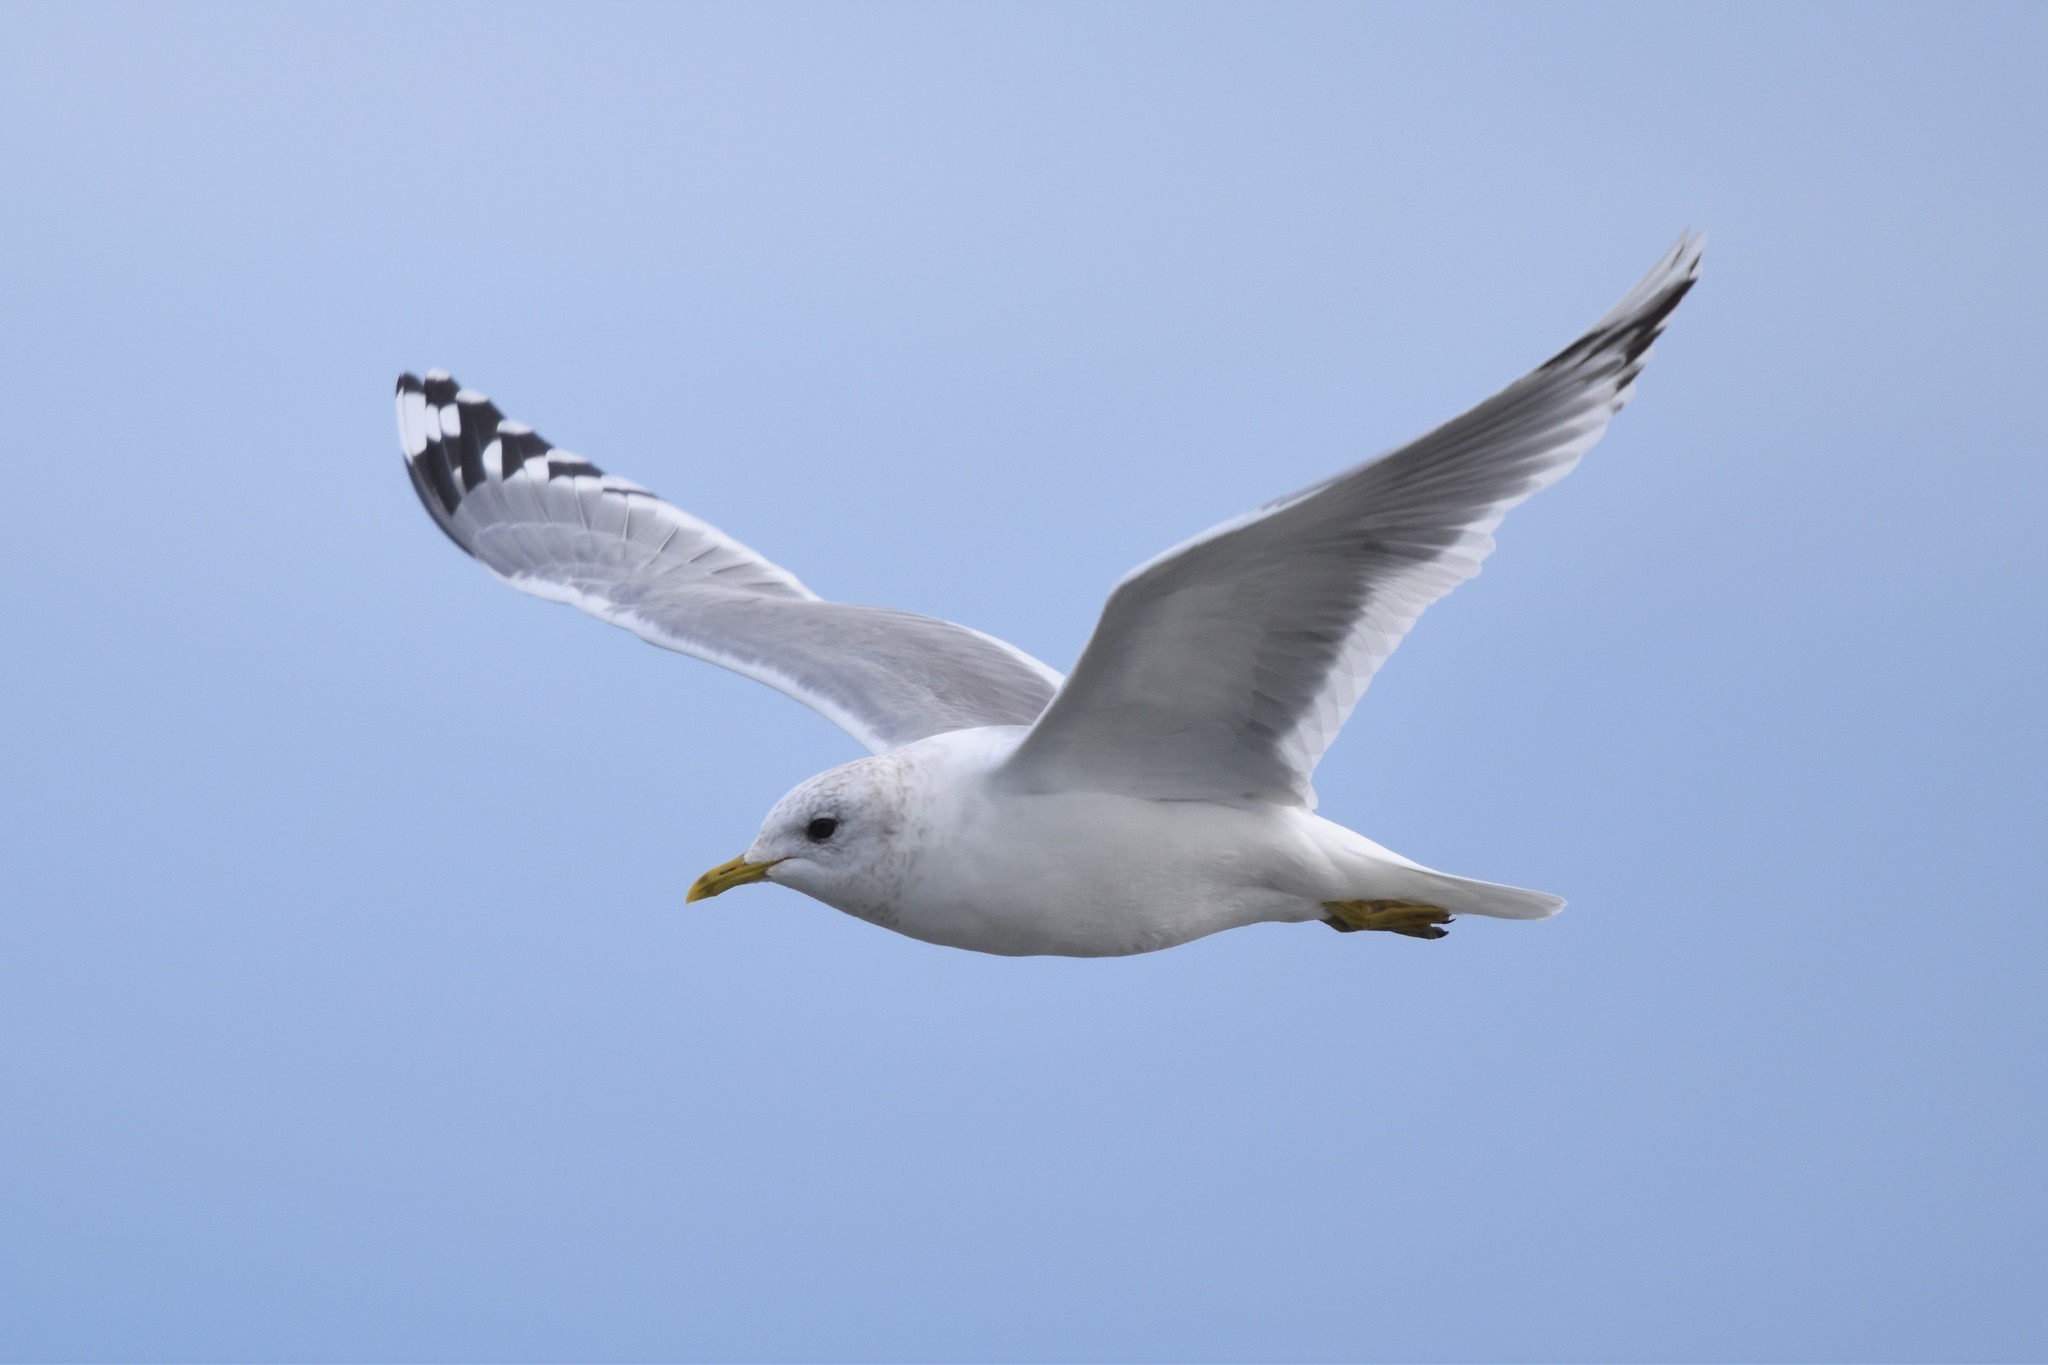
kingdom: Animalia
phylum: Chordata
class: Aves
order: Charadriiformes
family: Laridae
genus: Larus
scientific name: Larus brachyrhynchus
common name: Short-billed gull
